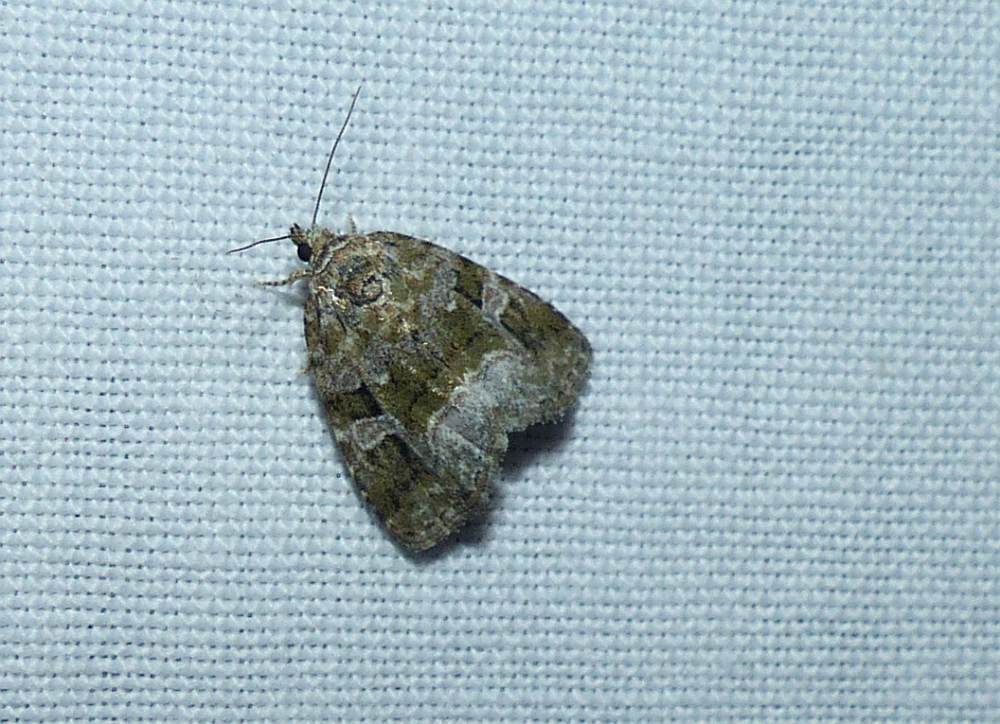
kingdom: Animalia
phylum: Arthropoda
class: Insecta
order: Lepidoptera
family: Noctuidae
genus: Protodeltote
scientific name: Protodeltote muscosula
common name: Large mossy glyph
